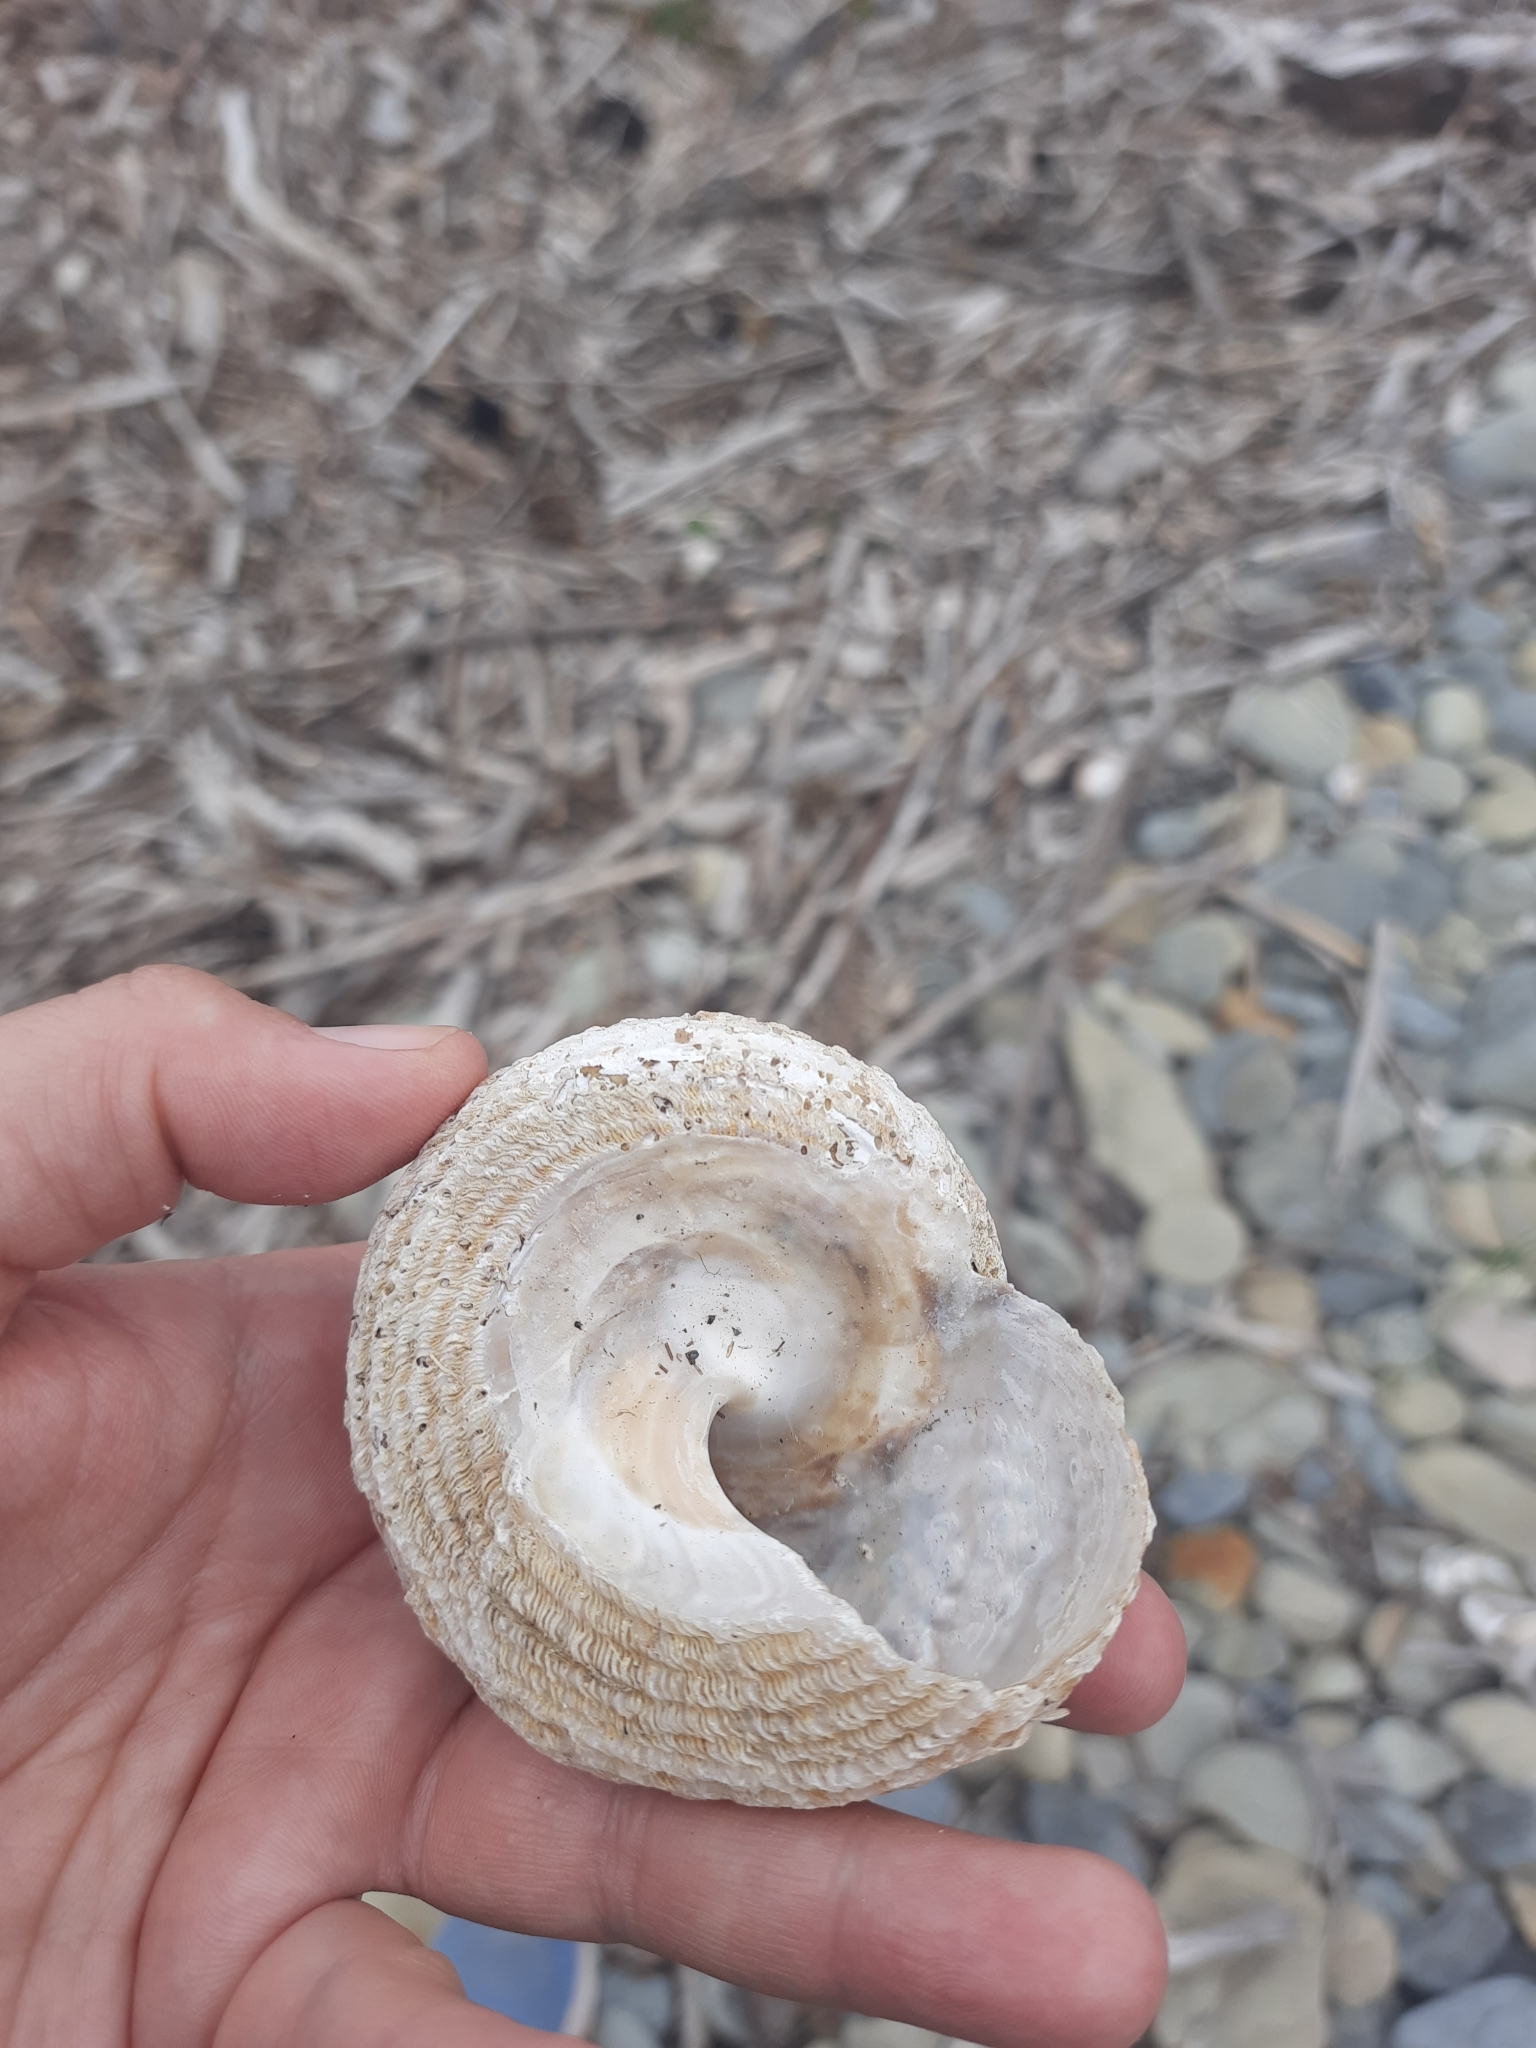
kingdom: Animalia
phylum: Mollusca
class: Gastropoda
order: Trochida
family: Turbinidae
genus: Cookia
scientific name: Cookia sulcata
